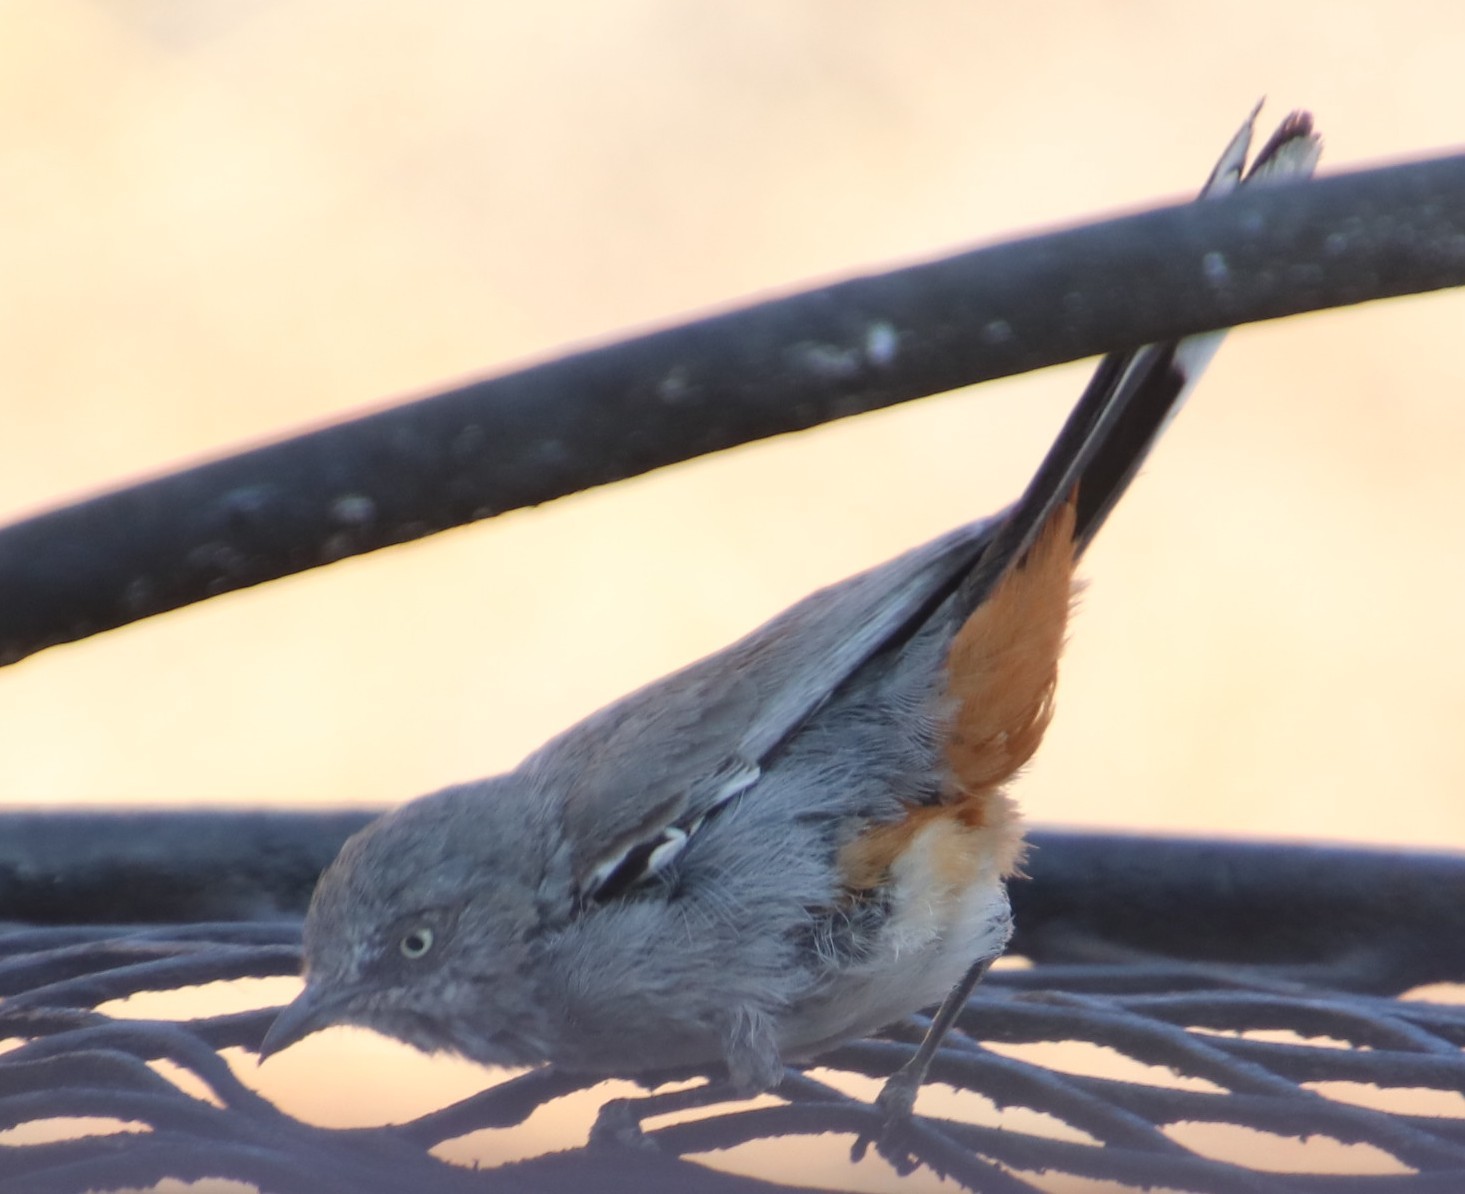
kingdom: Animalia
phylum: Chordata
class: Aves
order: Passeriformes
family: Sylviidae
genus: Sylvia
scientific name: Sylvia subcaerulea
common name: Chestnut-vented warbler
